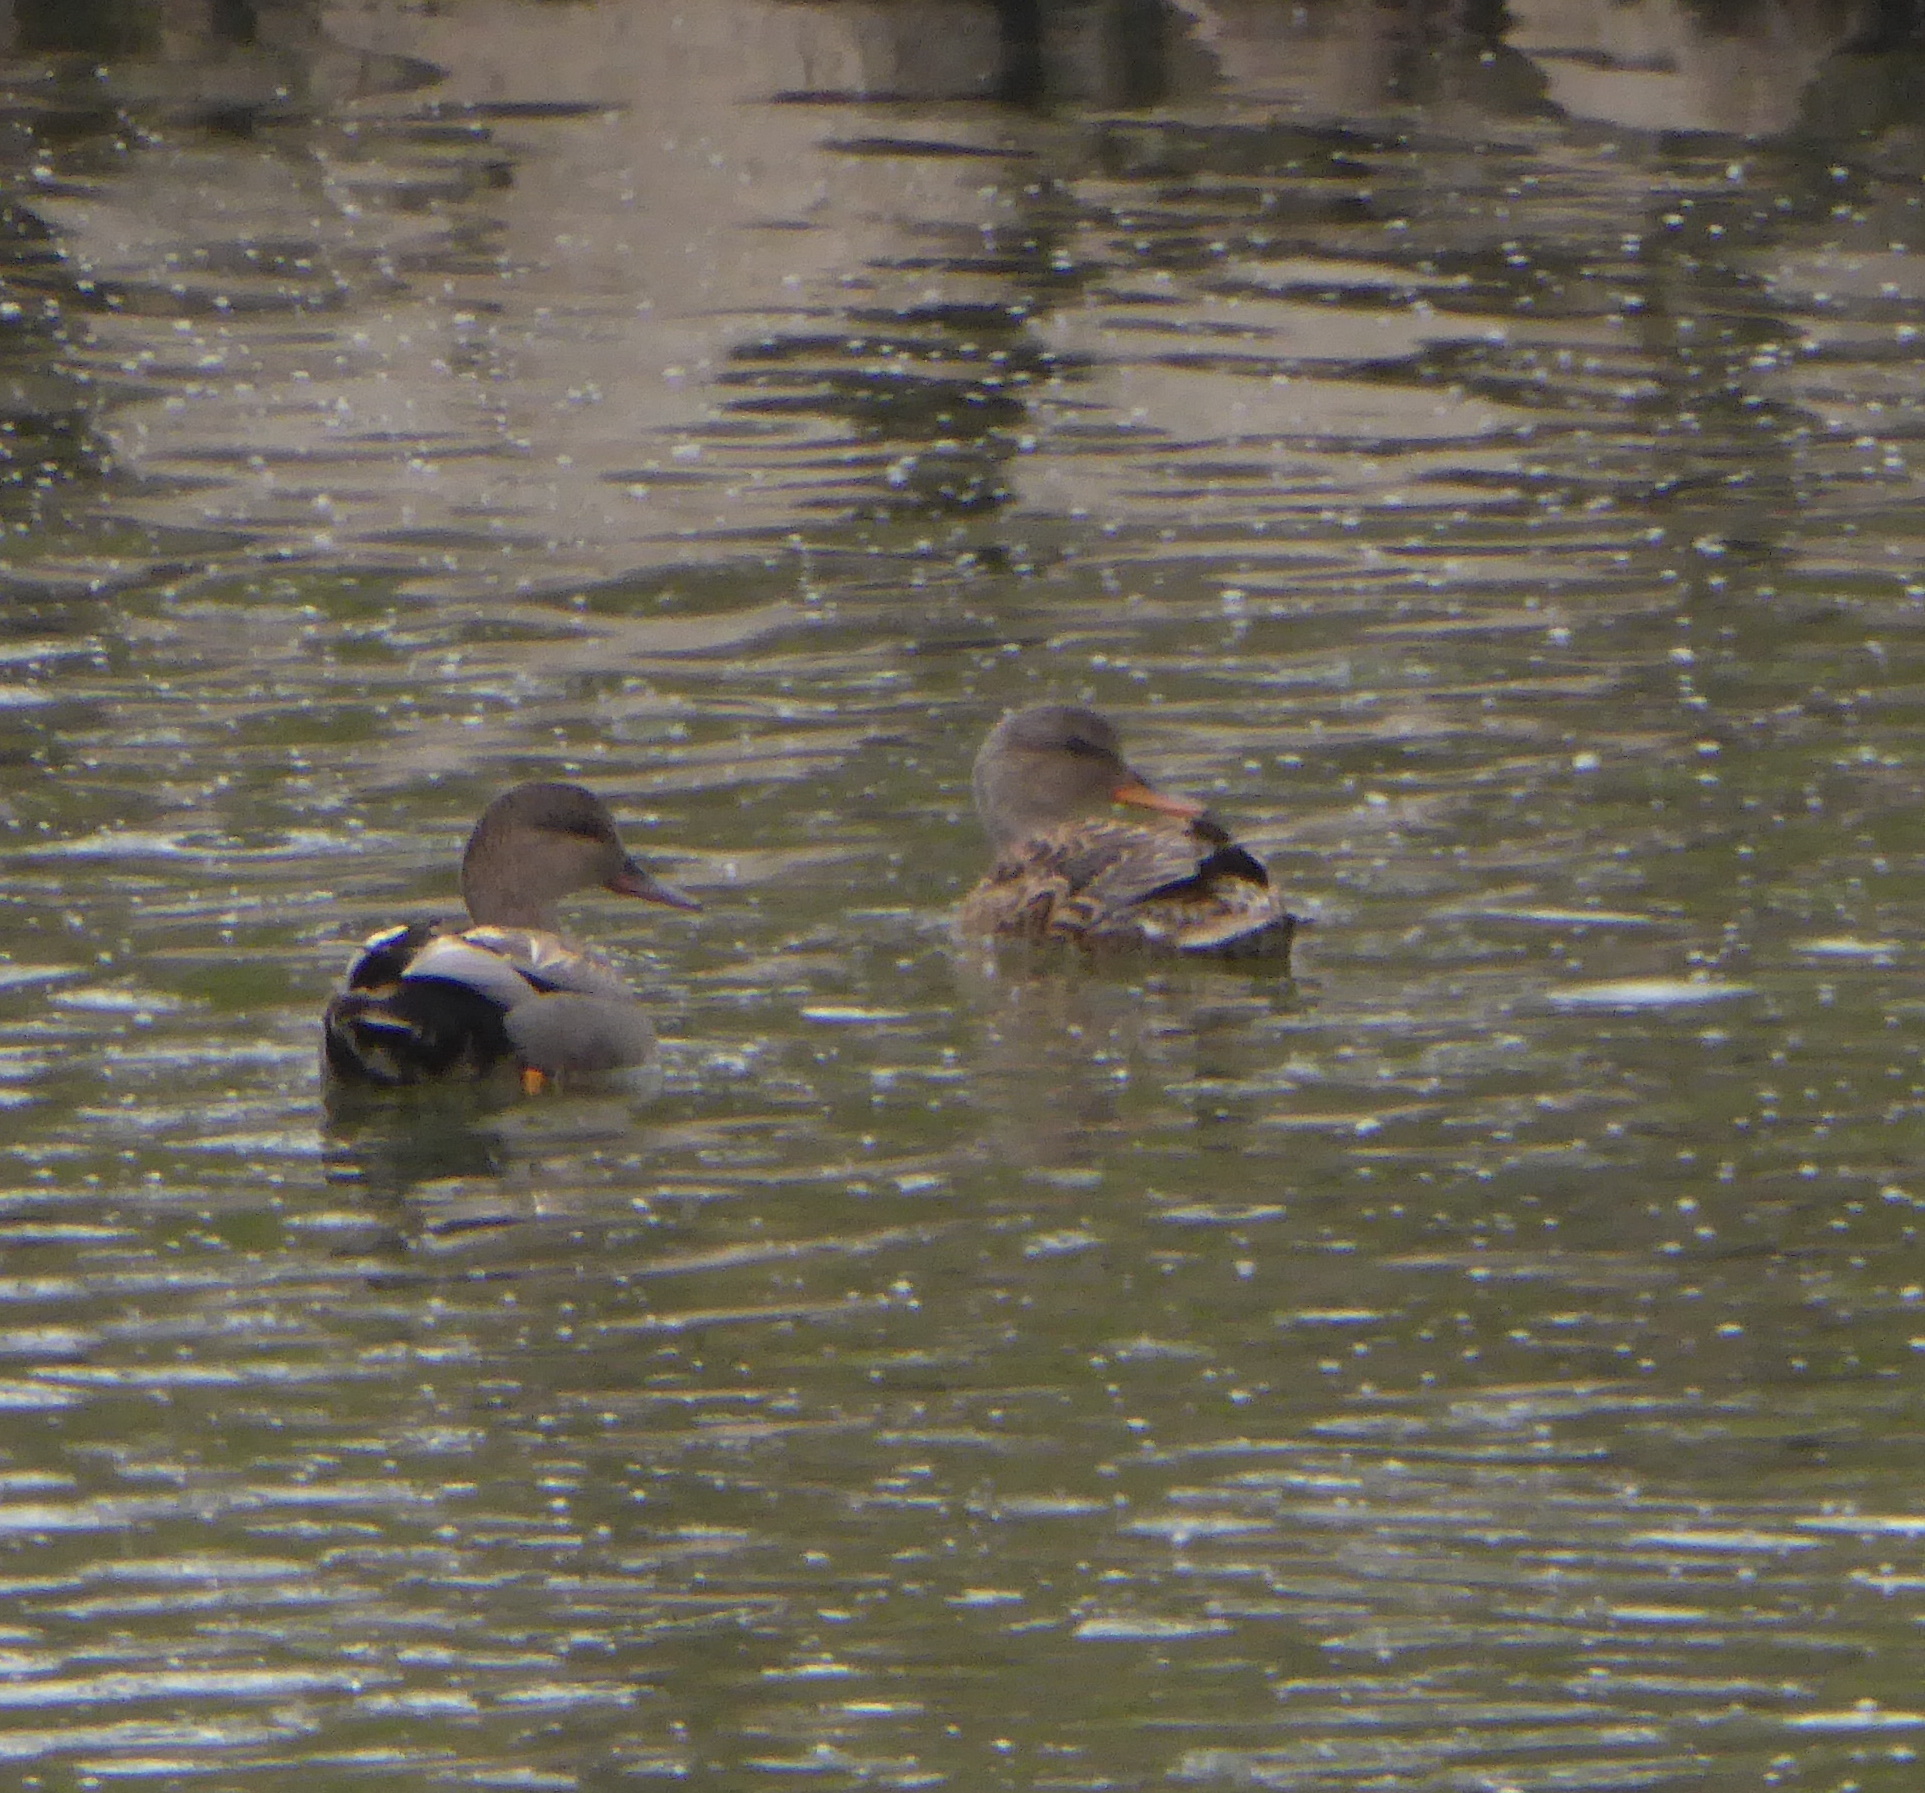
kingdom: Animalia
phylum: Chordata
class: Aves
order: Anseriformes
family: Anatidae
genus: Mareca
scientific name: Mareca strepera
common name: Gadwall
